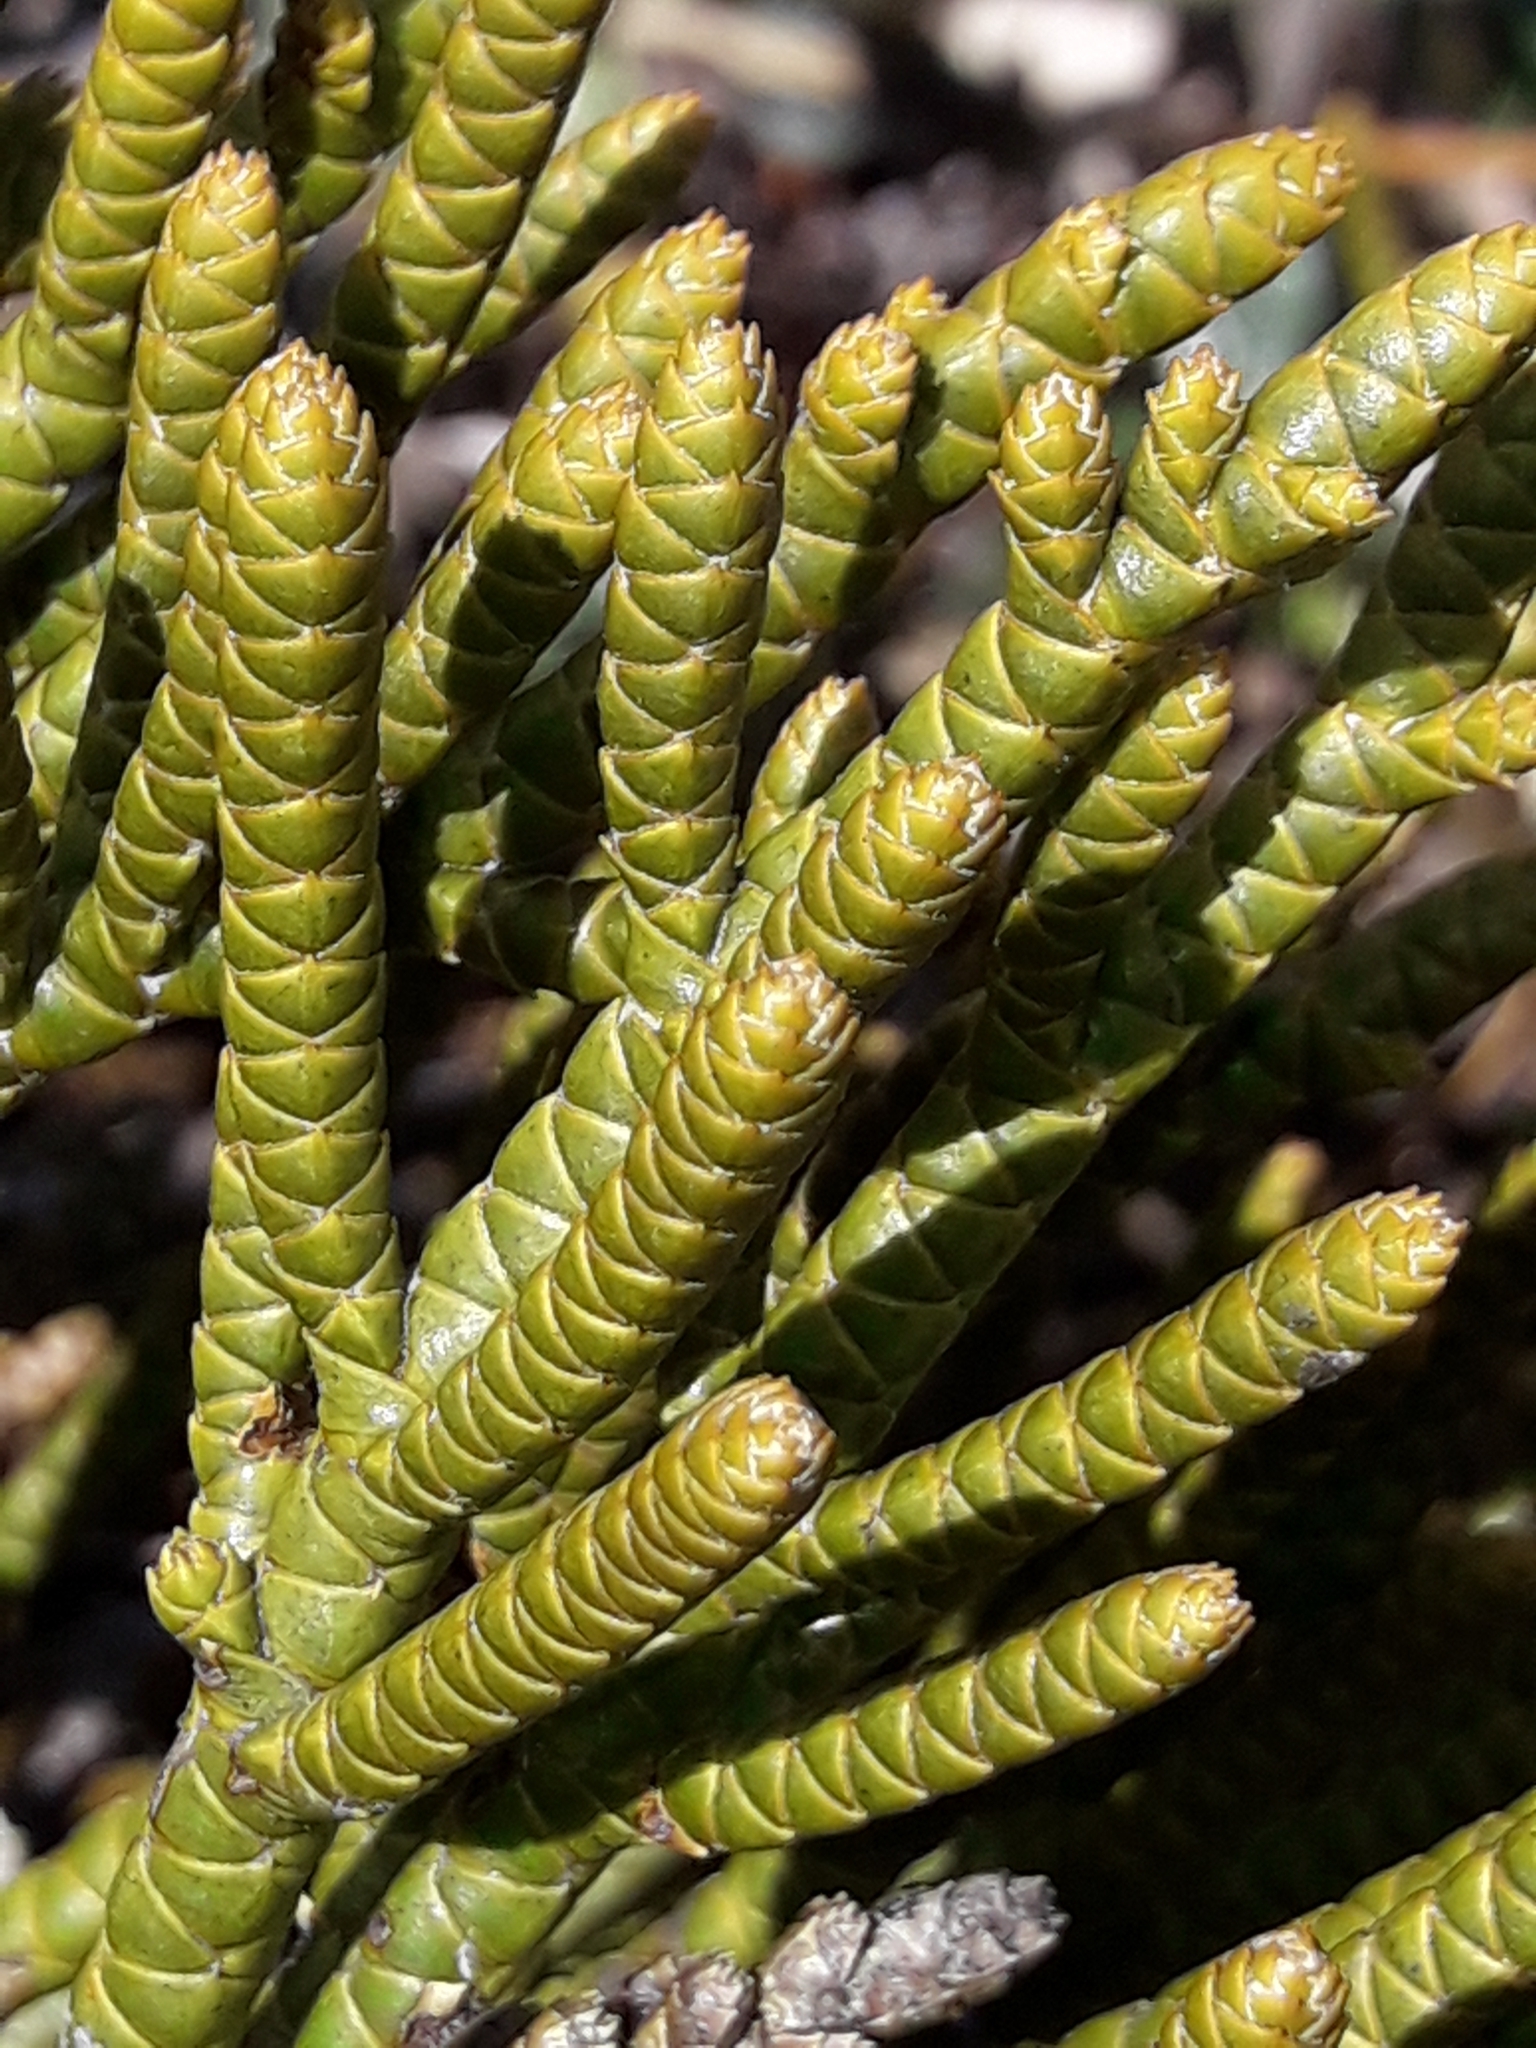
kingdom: Plantae
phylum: Tracheophyta
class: Magnoliopsida
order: Lamiales
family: Plantaginaceae
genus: Veronica
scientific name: Veronica hectorii
